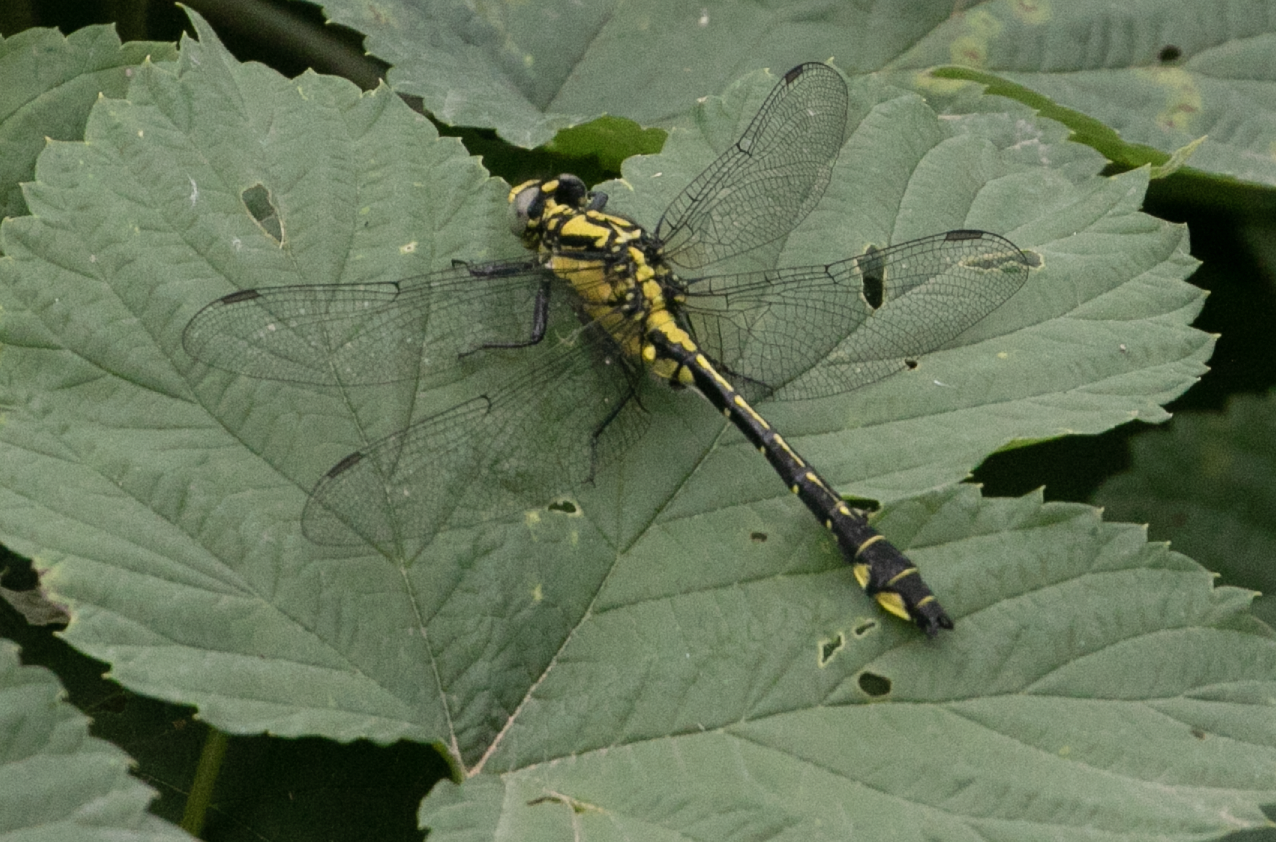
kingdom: Animalia
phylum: Arthropoda
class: Insecta
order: Odonata
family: Gomphidae
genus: Gomphus
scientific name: Gomphus vulgatissimus
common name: Club-tailed dragonfly
